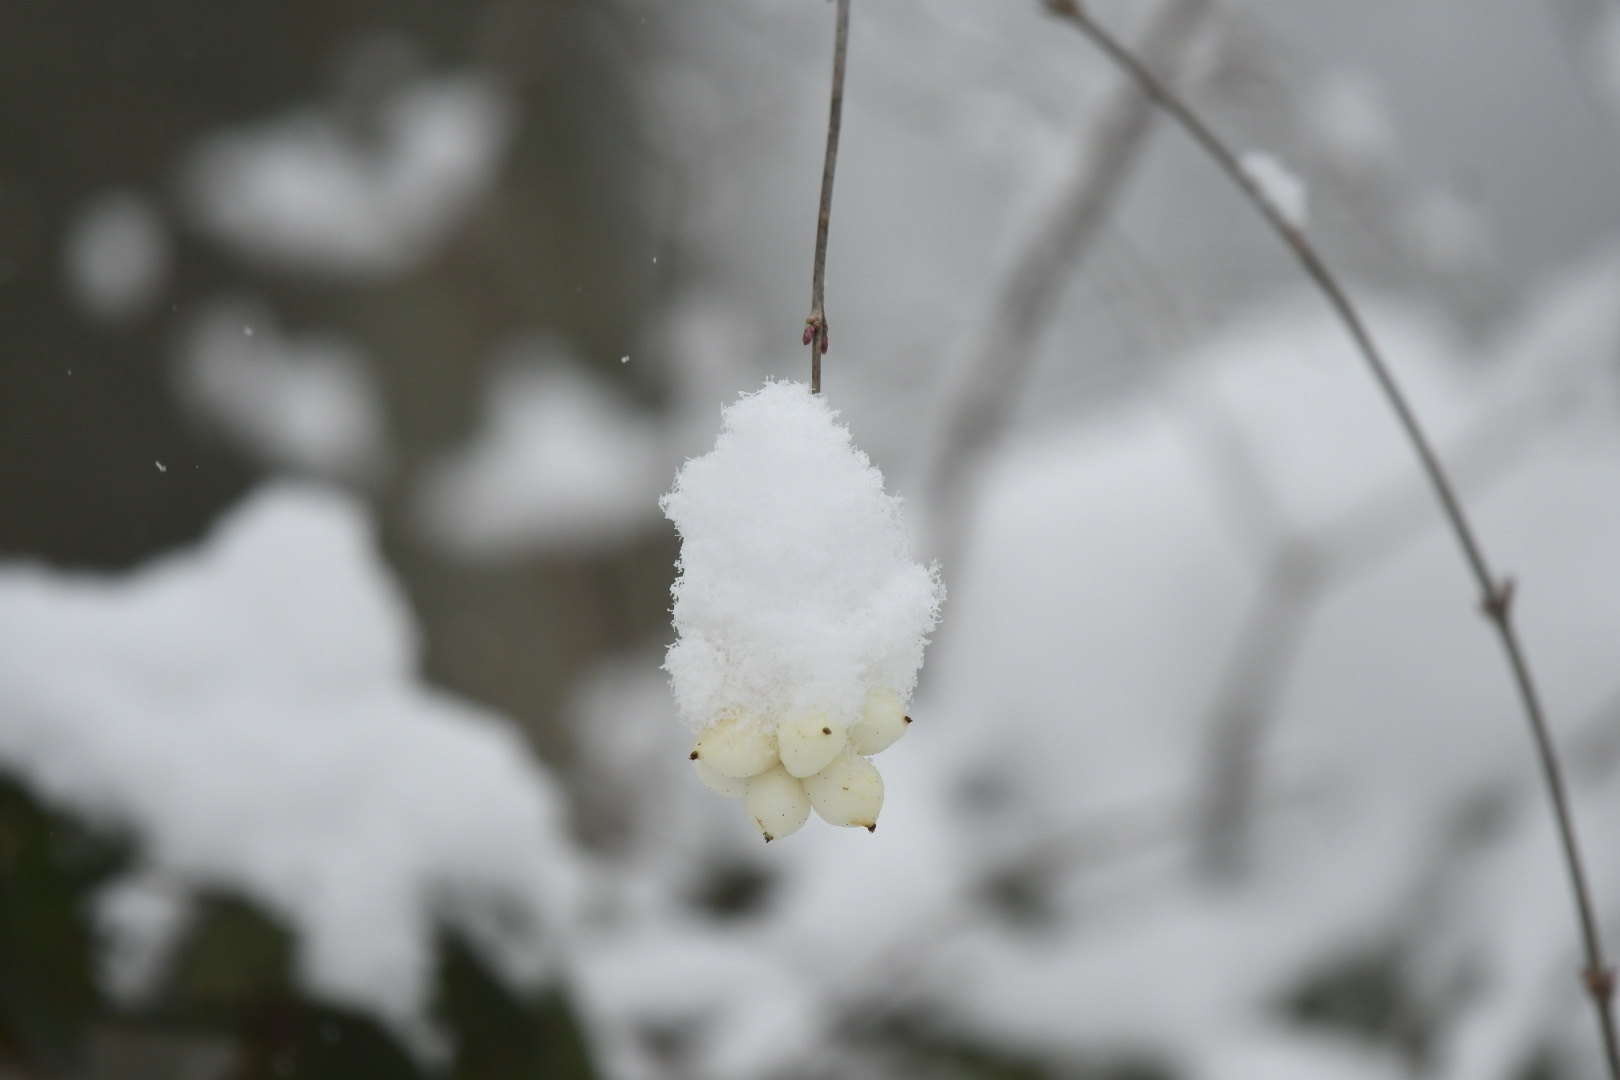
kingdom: Plantae
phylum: Tracheophyta
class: Magnoliopsida
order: Dipsacales
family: Caprifoliaceae
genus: Symphoricarpos
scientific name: Symphoricarpos albus
